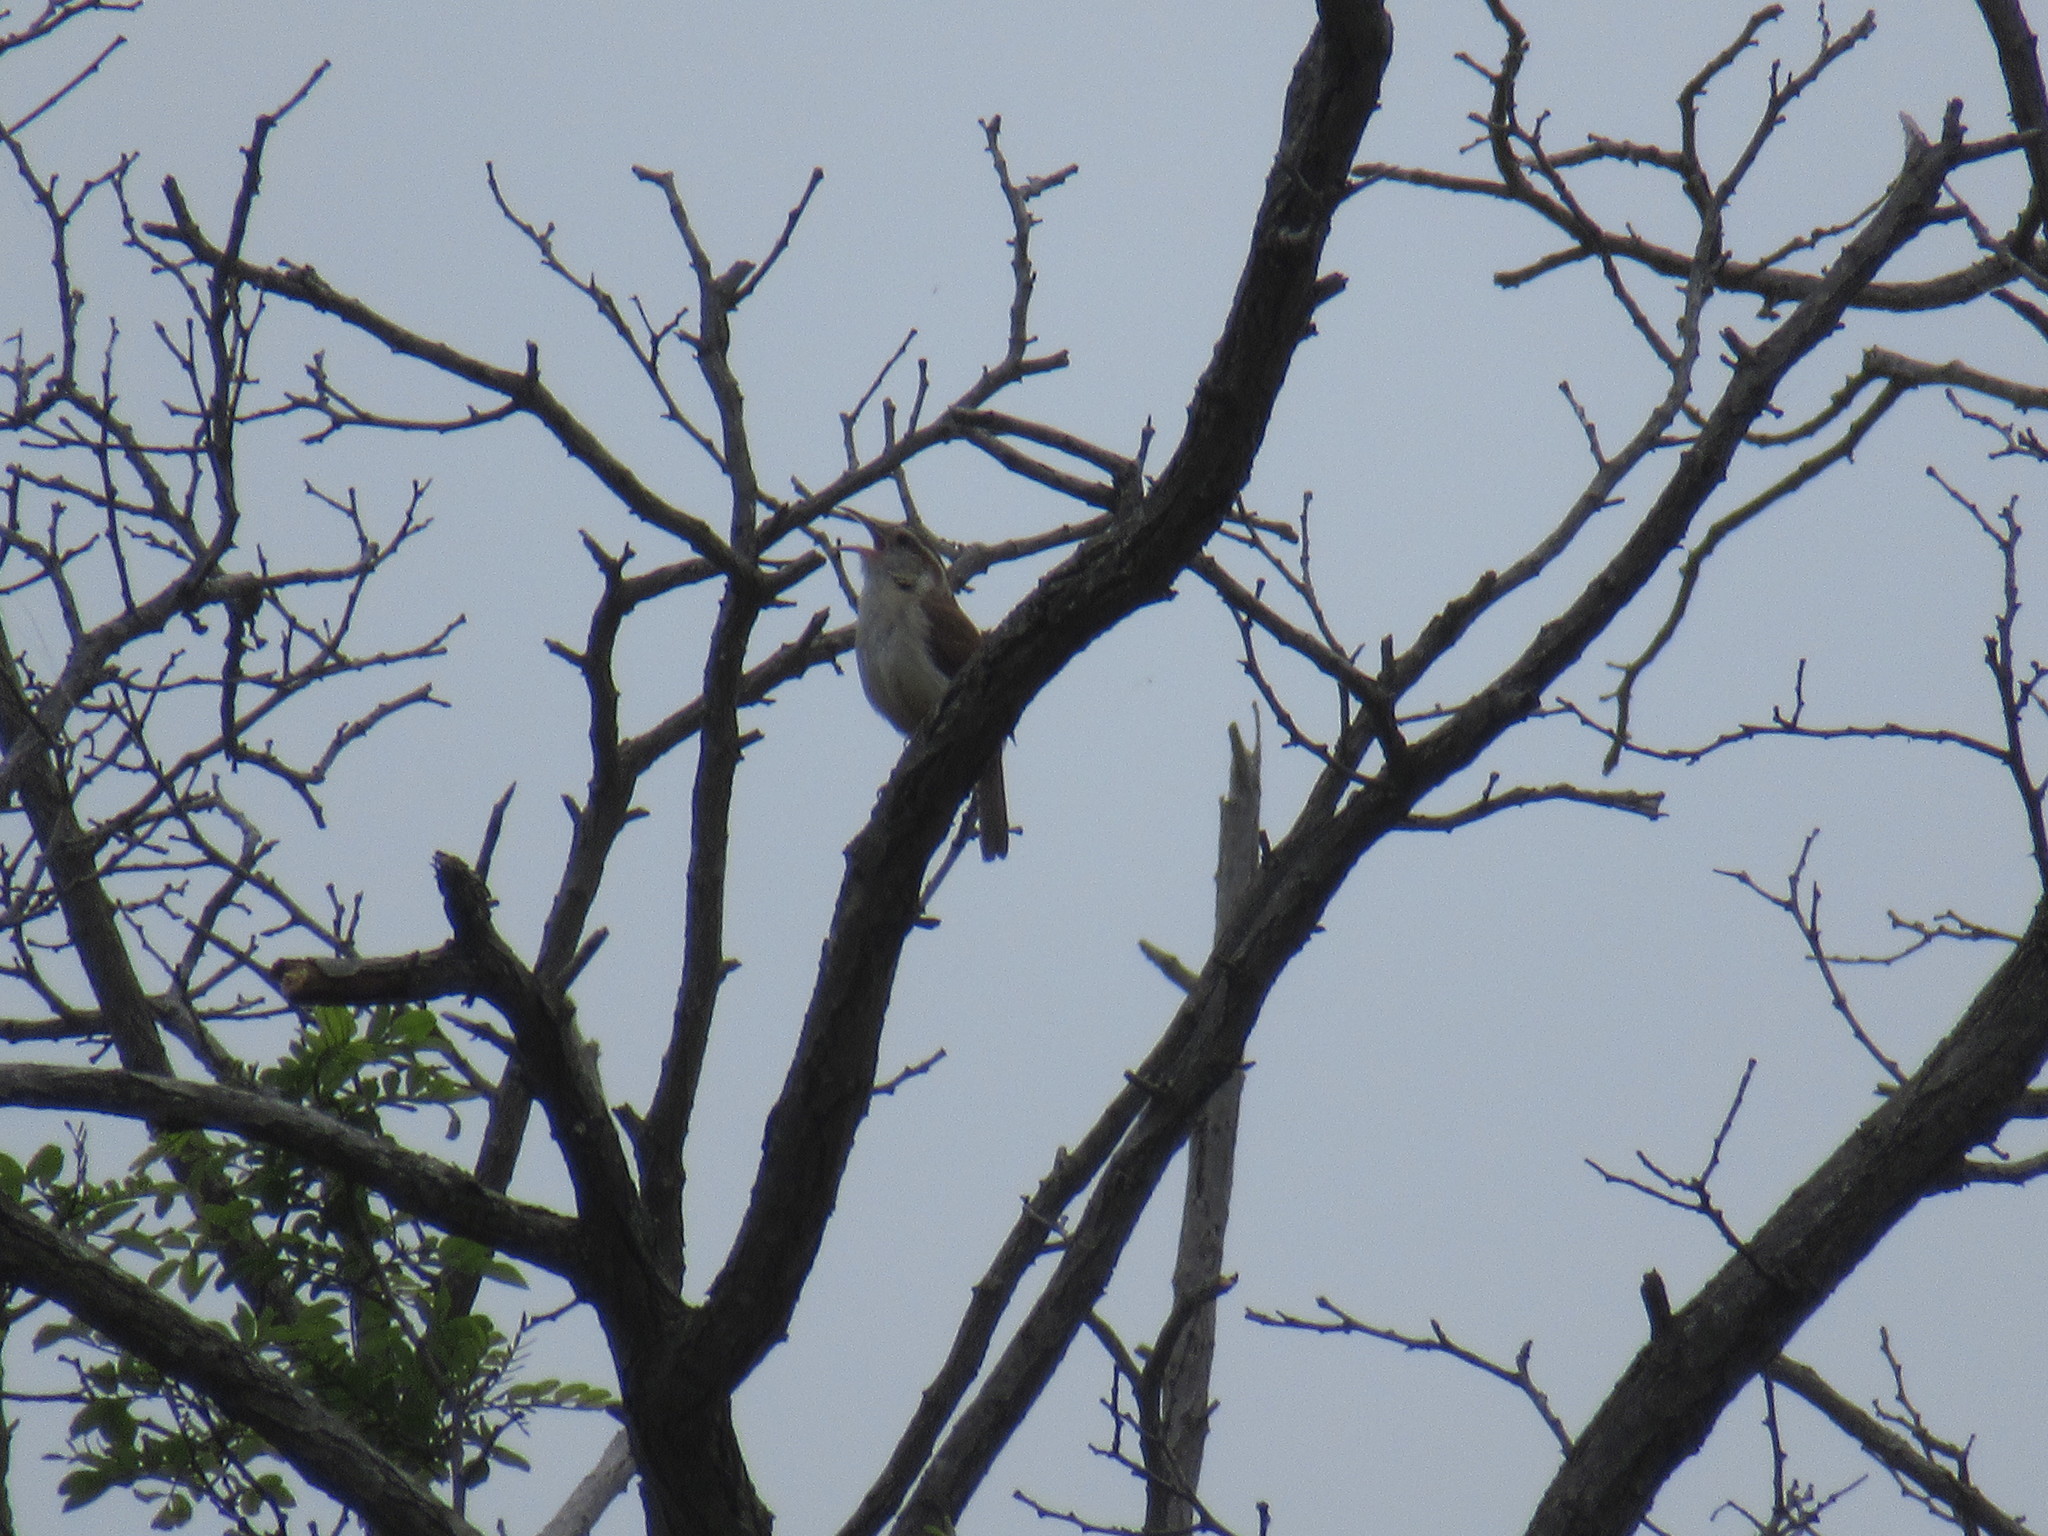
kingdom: Animalia
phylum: Chordata
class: Aves
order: Passeriformes
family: Troglodytidae
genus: Thryothorus
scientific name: Thryothorus ludovicianus
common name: Carolina wren
